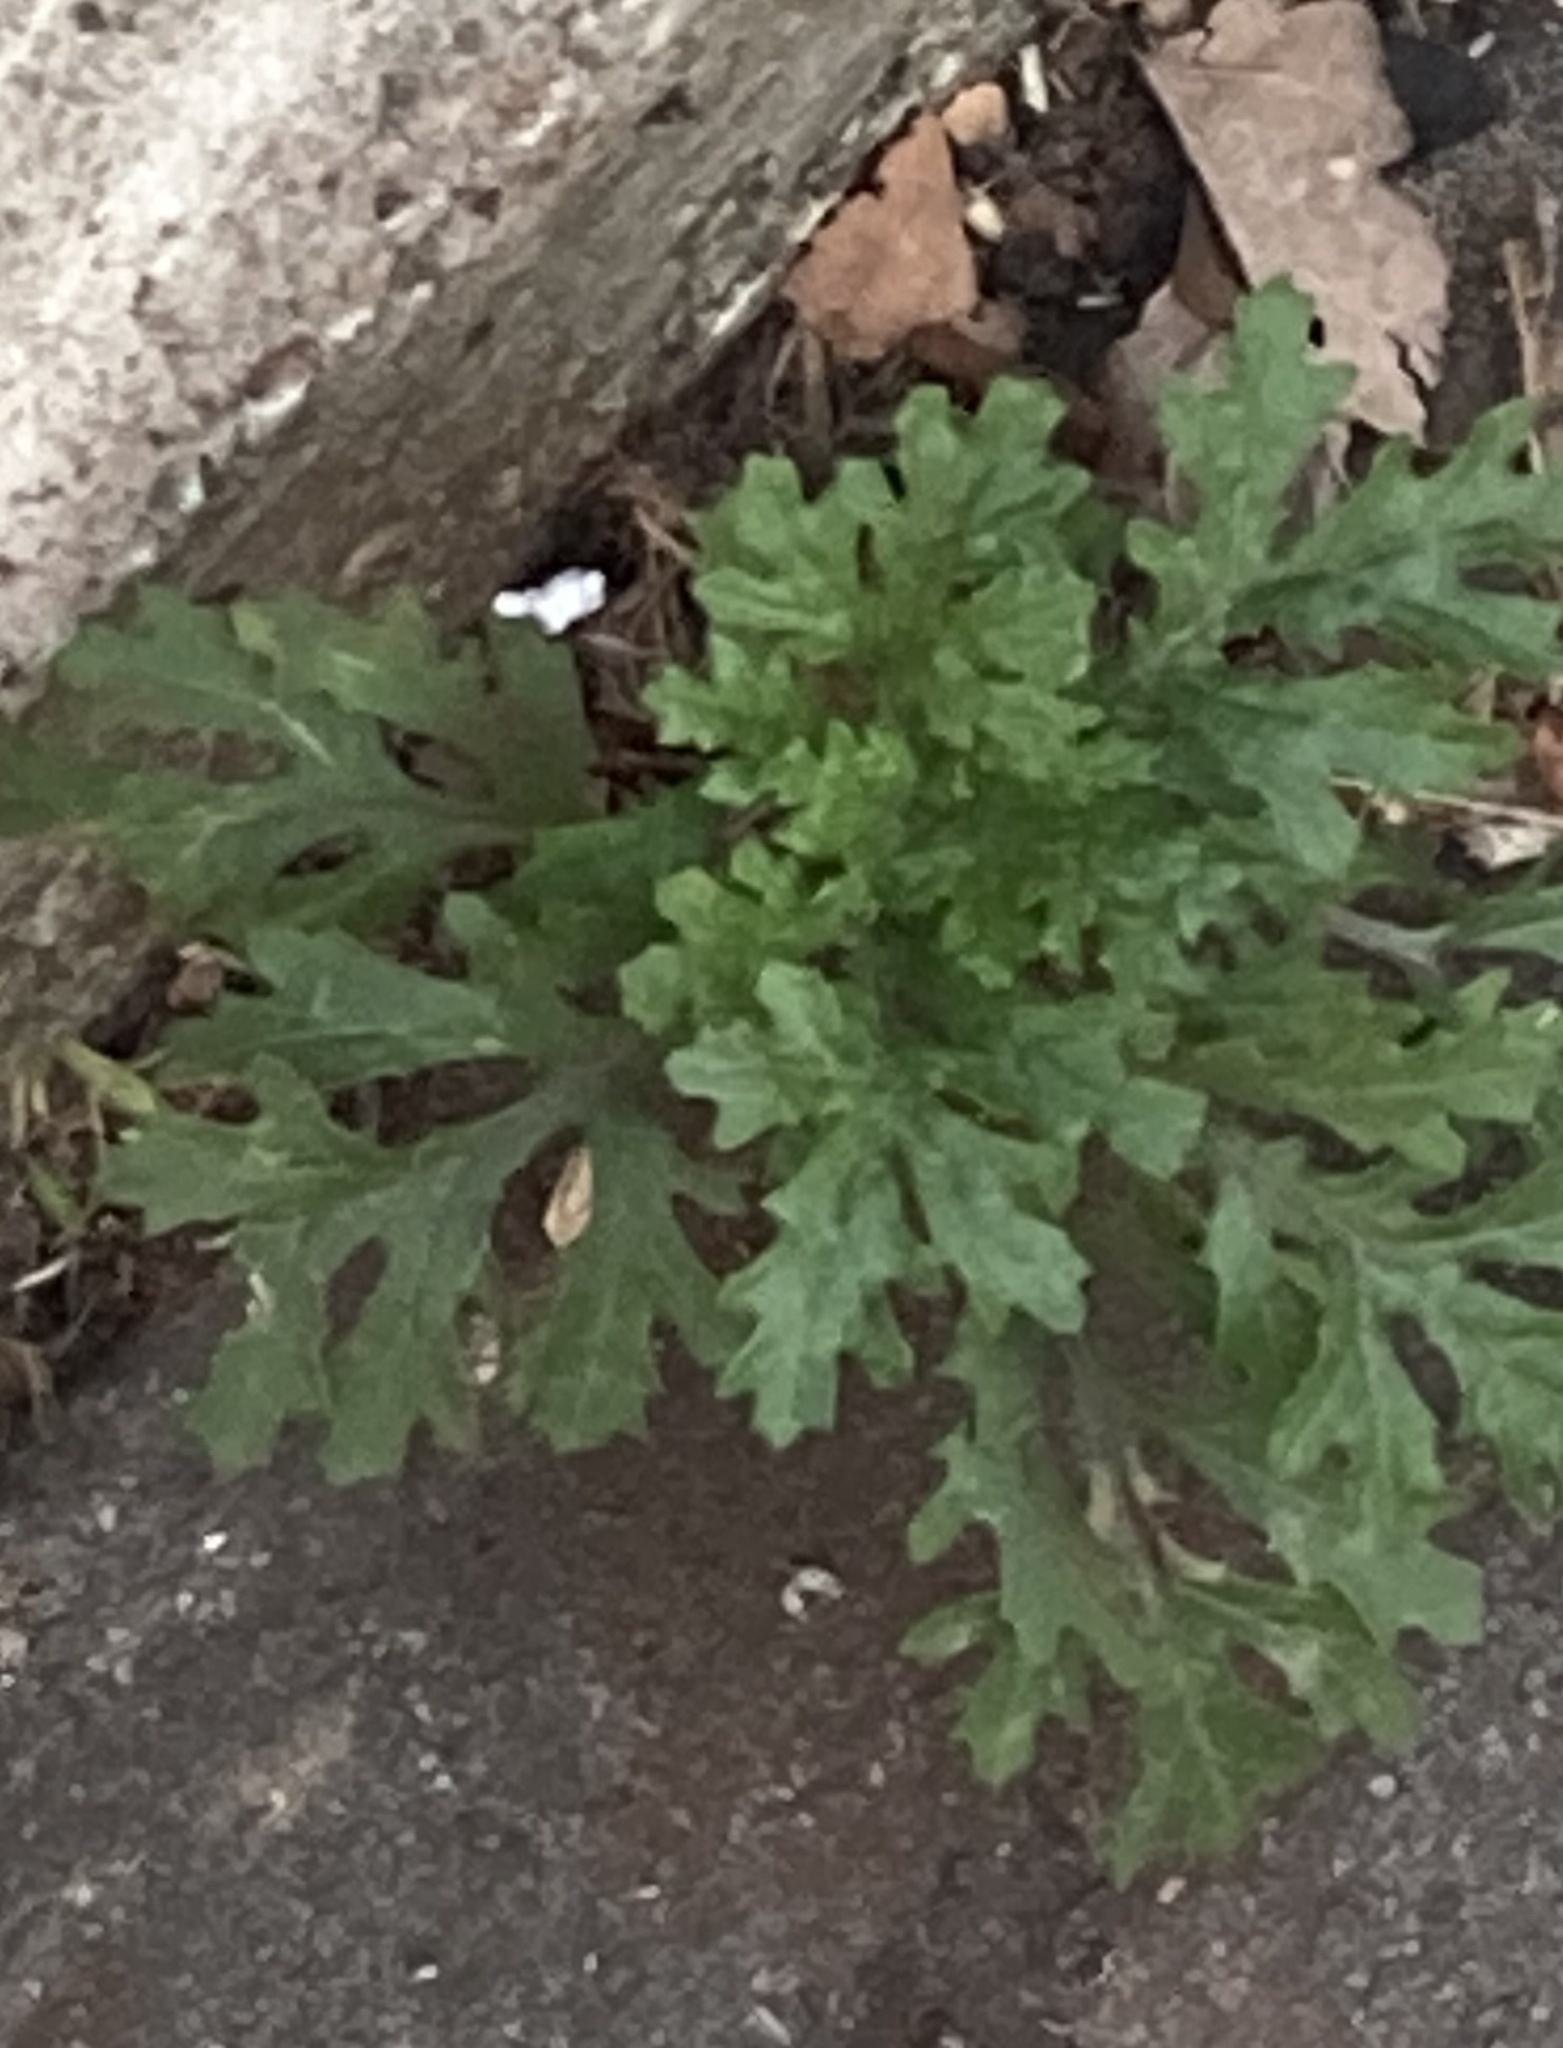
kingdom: Plantae
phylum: Tracheophyta
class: Magnoliopsida
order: Asterales
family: Asteraceae
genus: Senecio
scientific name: Senecio squalidus
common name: Oxford ragwort
